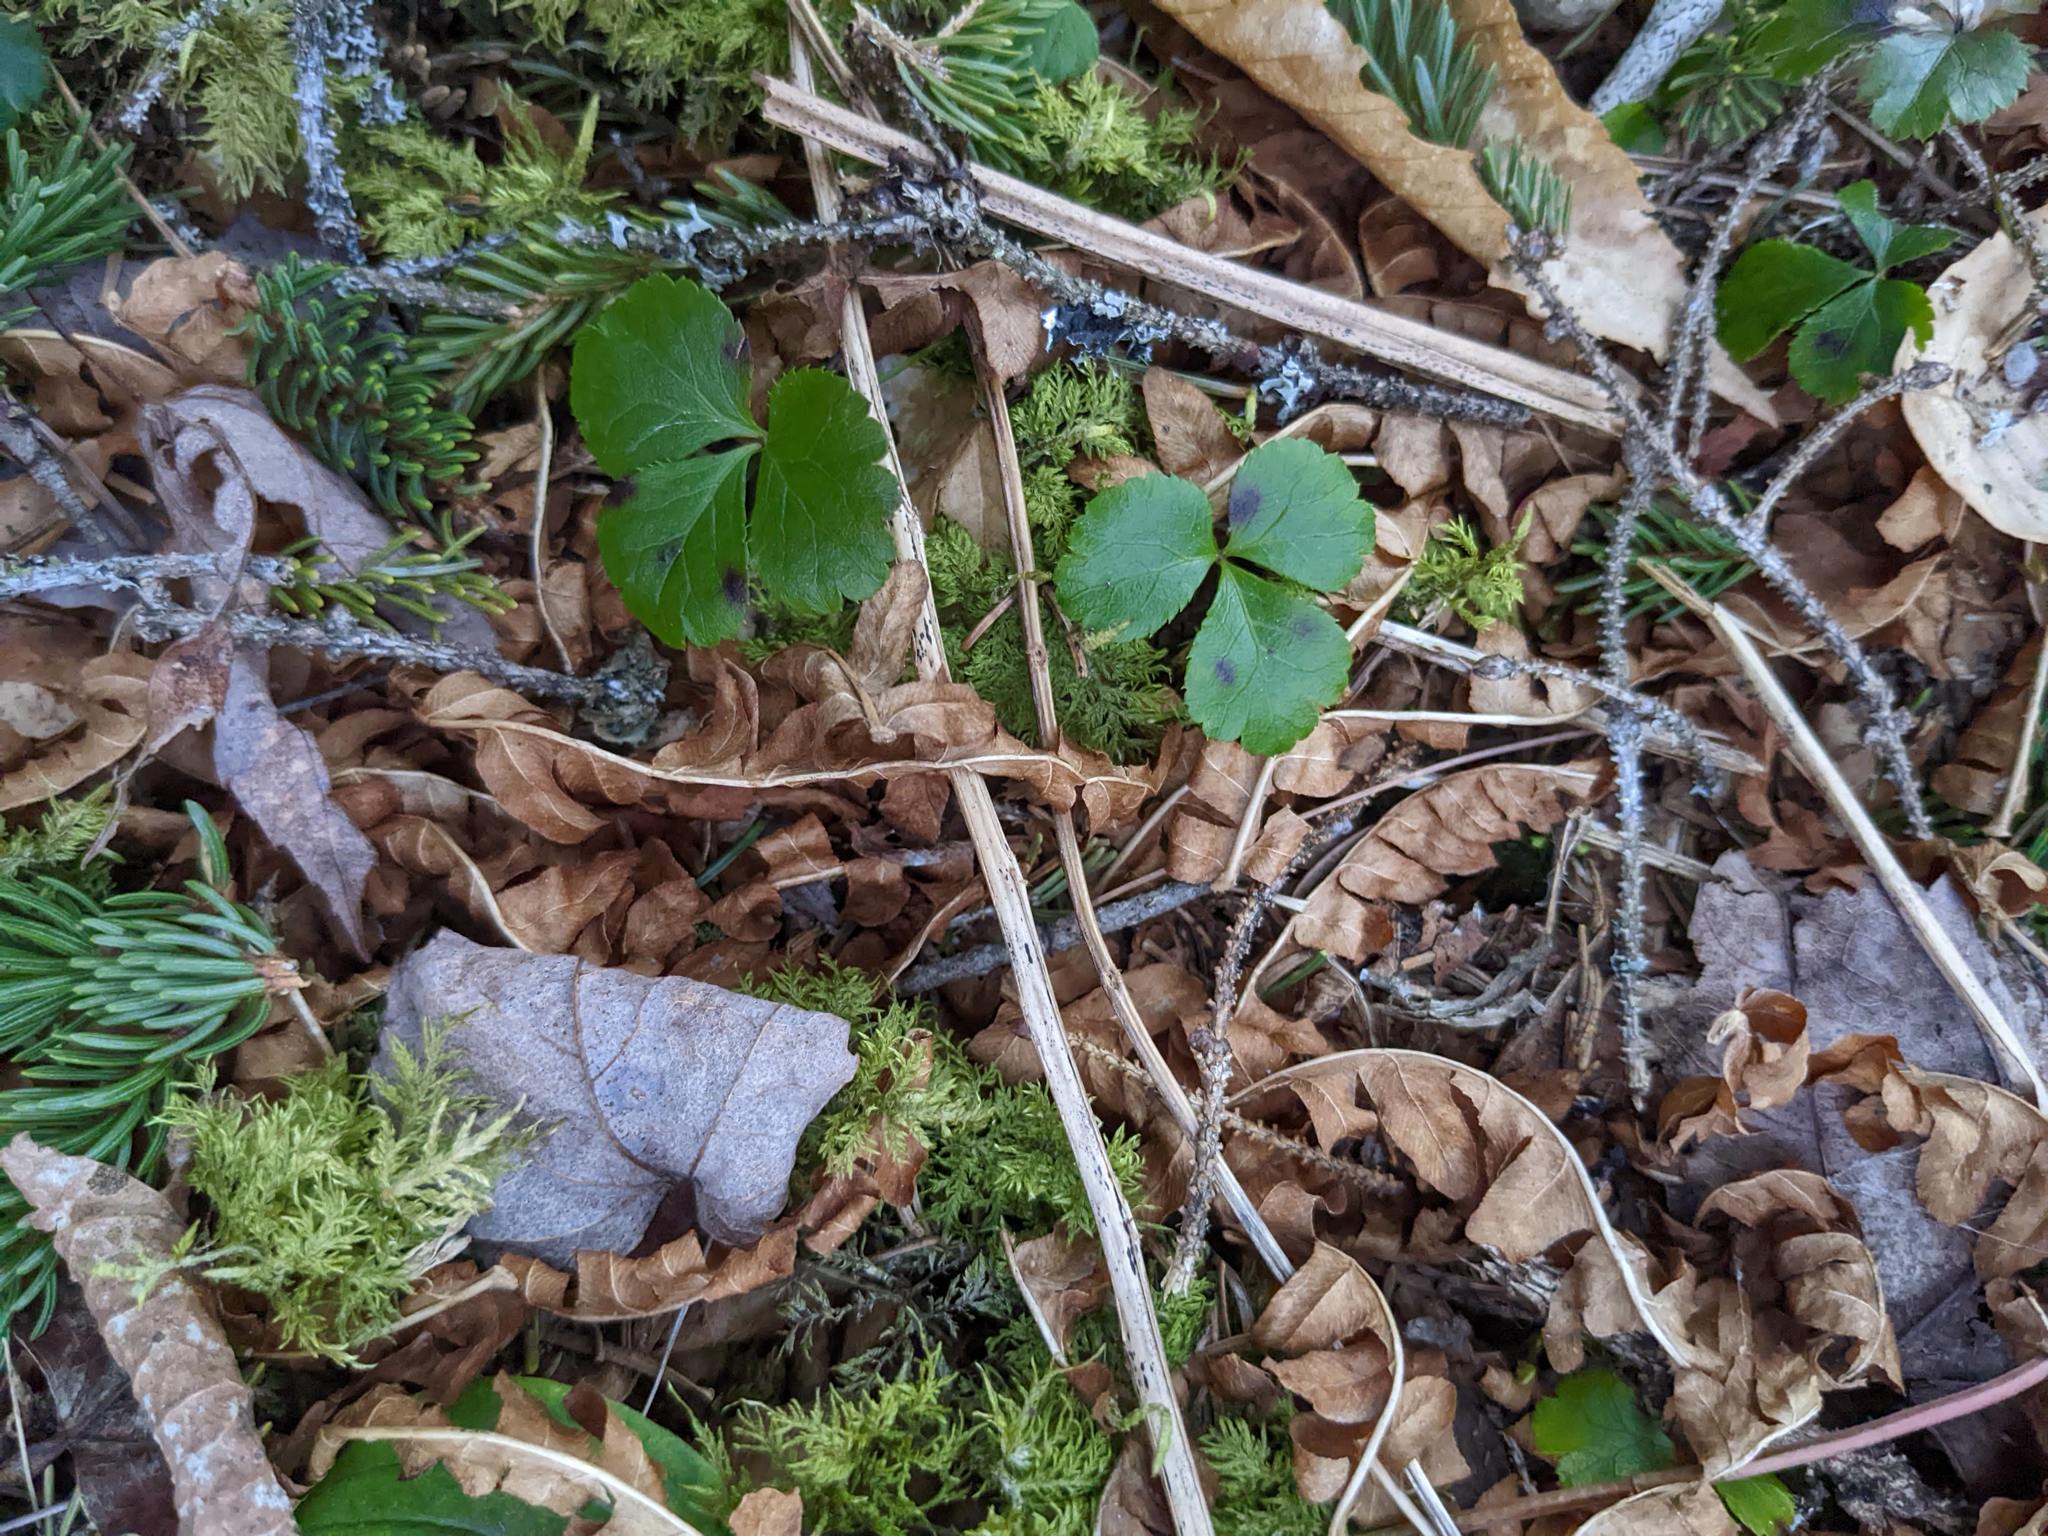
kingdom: Plantae
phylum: Tracheophyta
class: Magnoliopsida
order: Ranunculales
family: Ranunculaceae
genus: Coptis
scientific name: Coptis trifolia
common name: Canker-root
